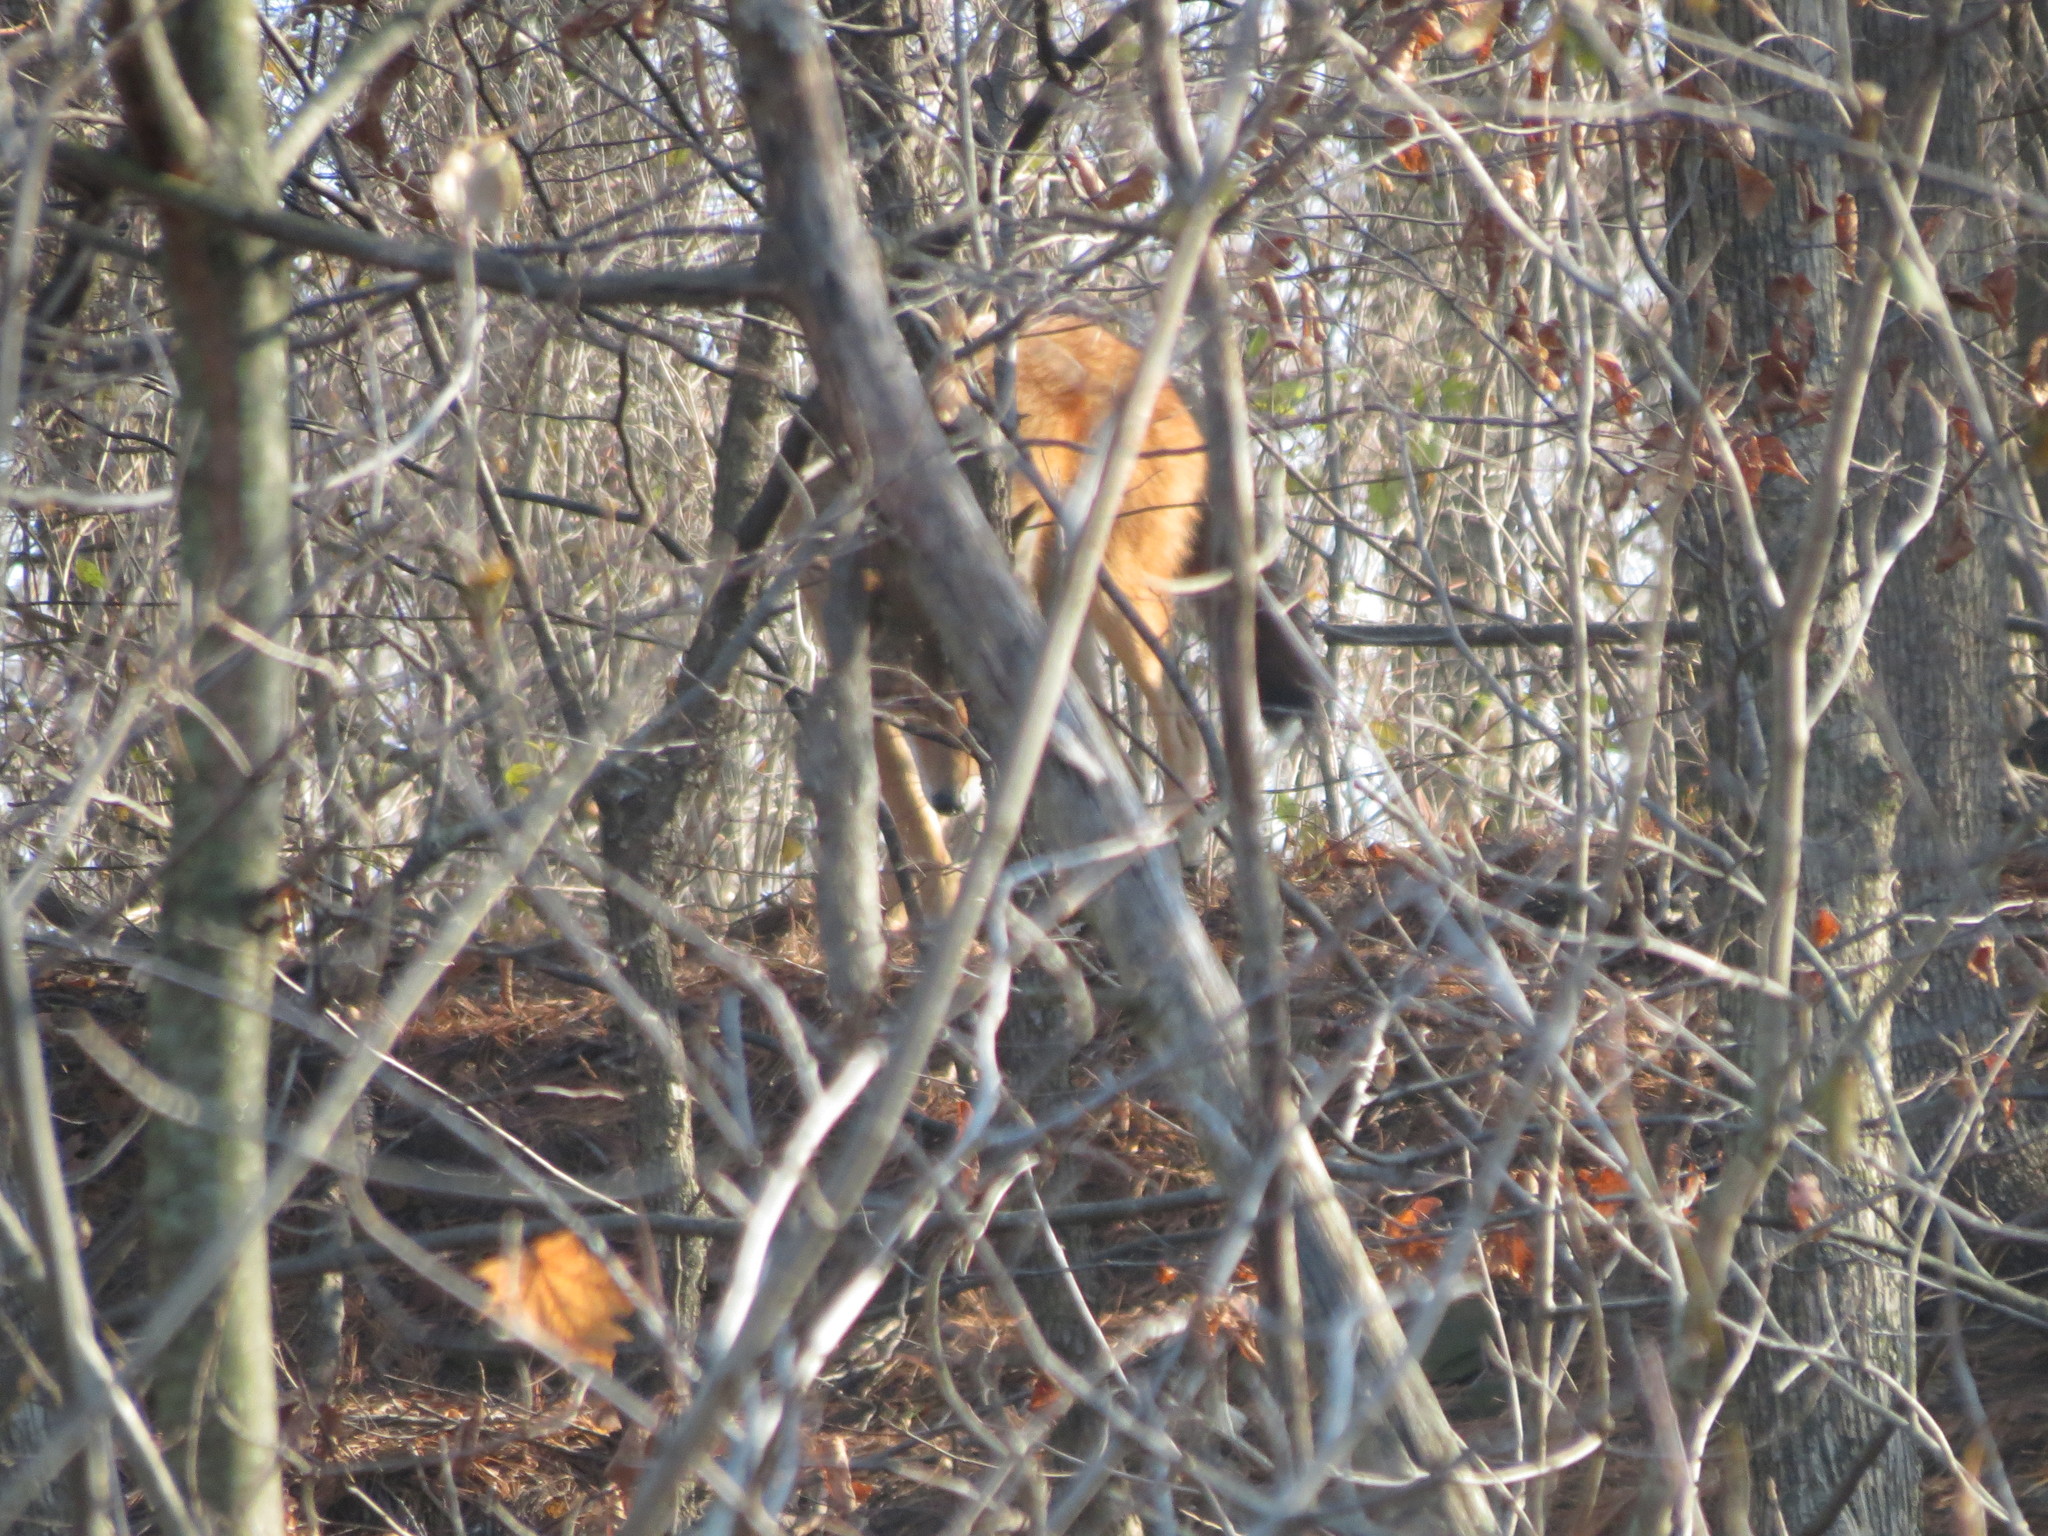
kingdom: Animalia
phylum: Chordata
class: Mammalia
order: Carnivora
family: Canidae
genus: Canis
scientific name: Canis latrans
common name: Coyote
